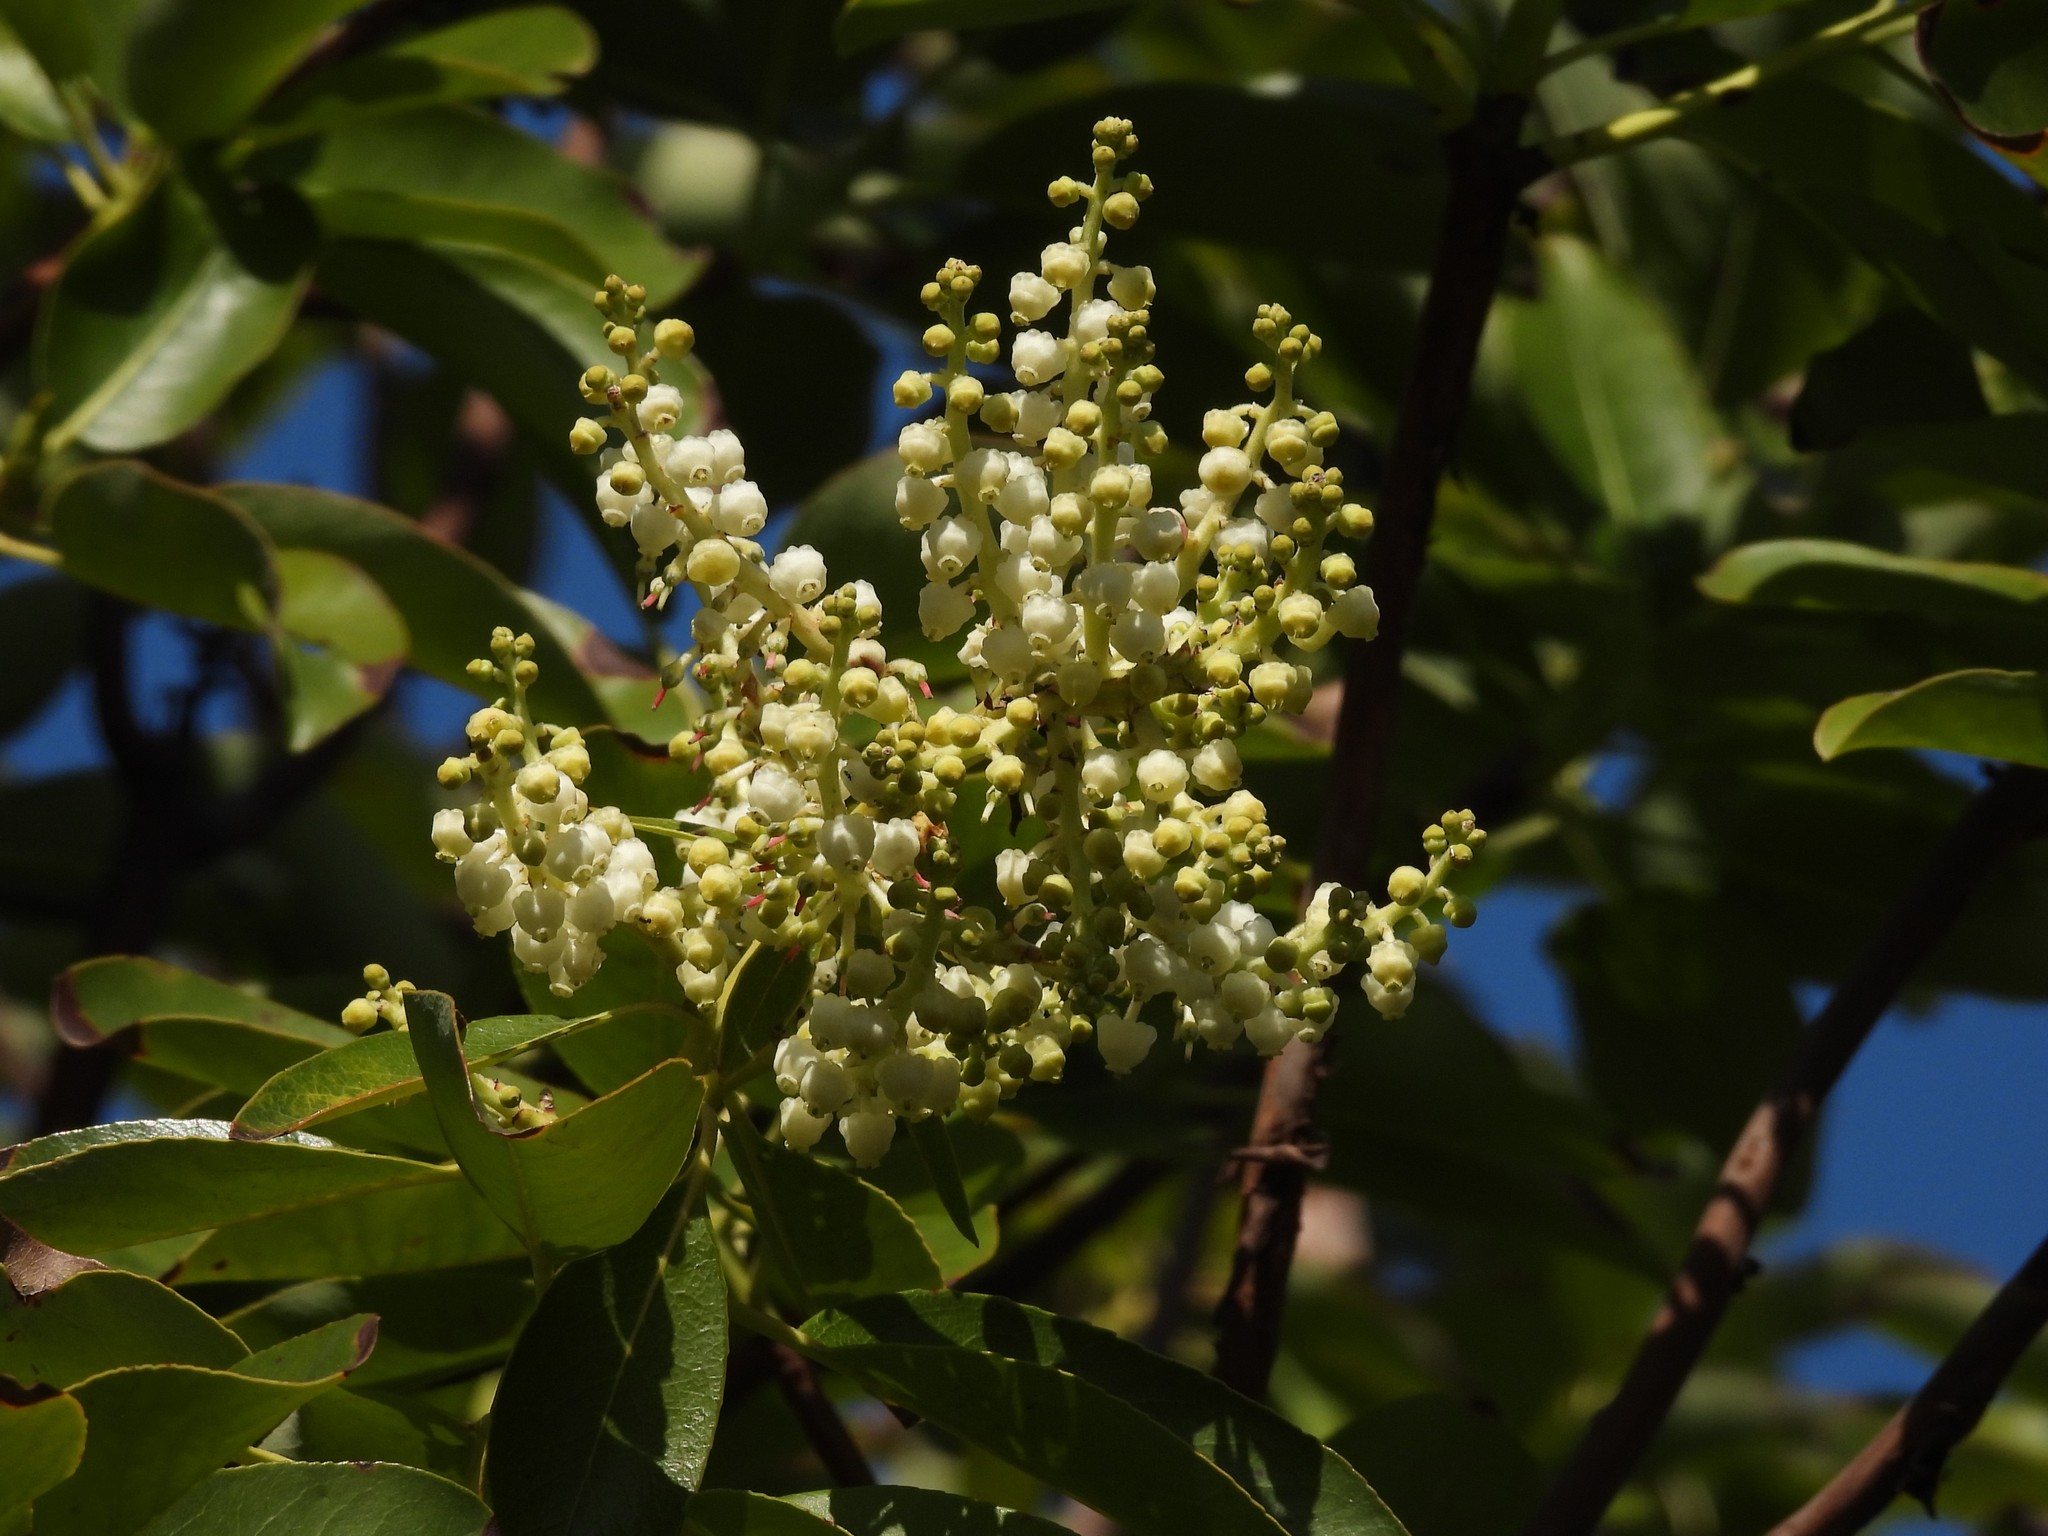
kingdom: Plantae
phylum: Tracheophyta
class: Magnoliopsida
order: Ericales
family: Ericaceae
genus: Arbutus
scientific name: Arbutus menziesii
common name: Pacific madrone
